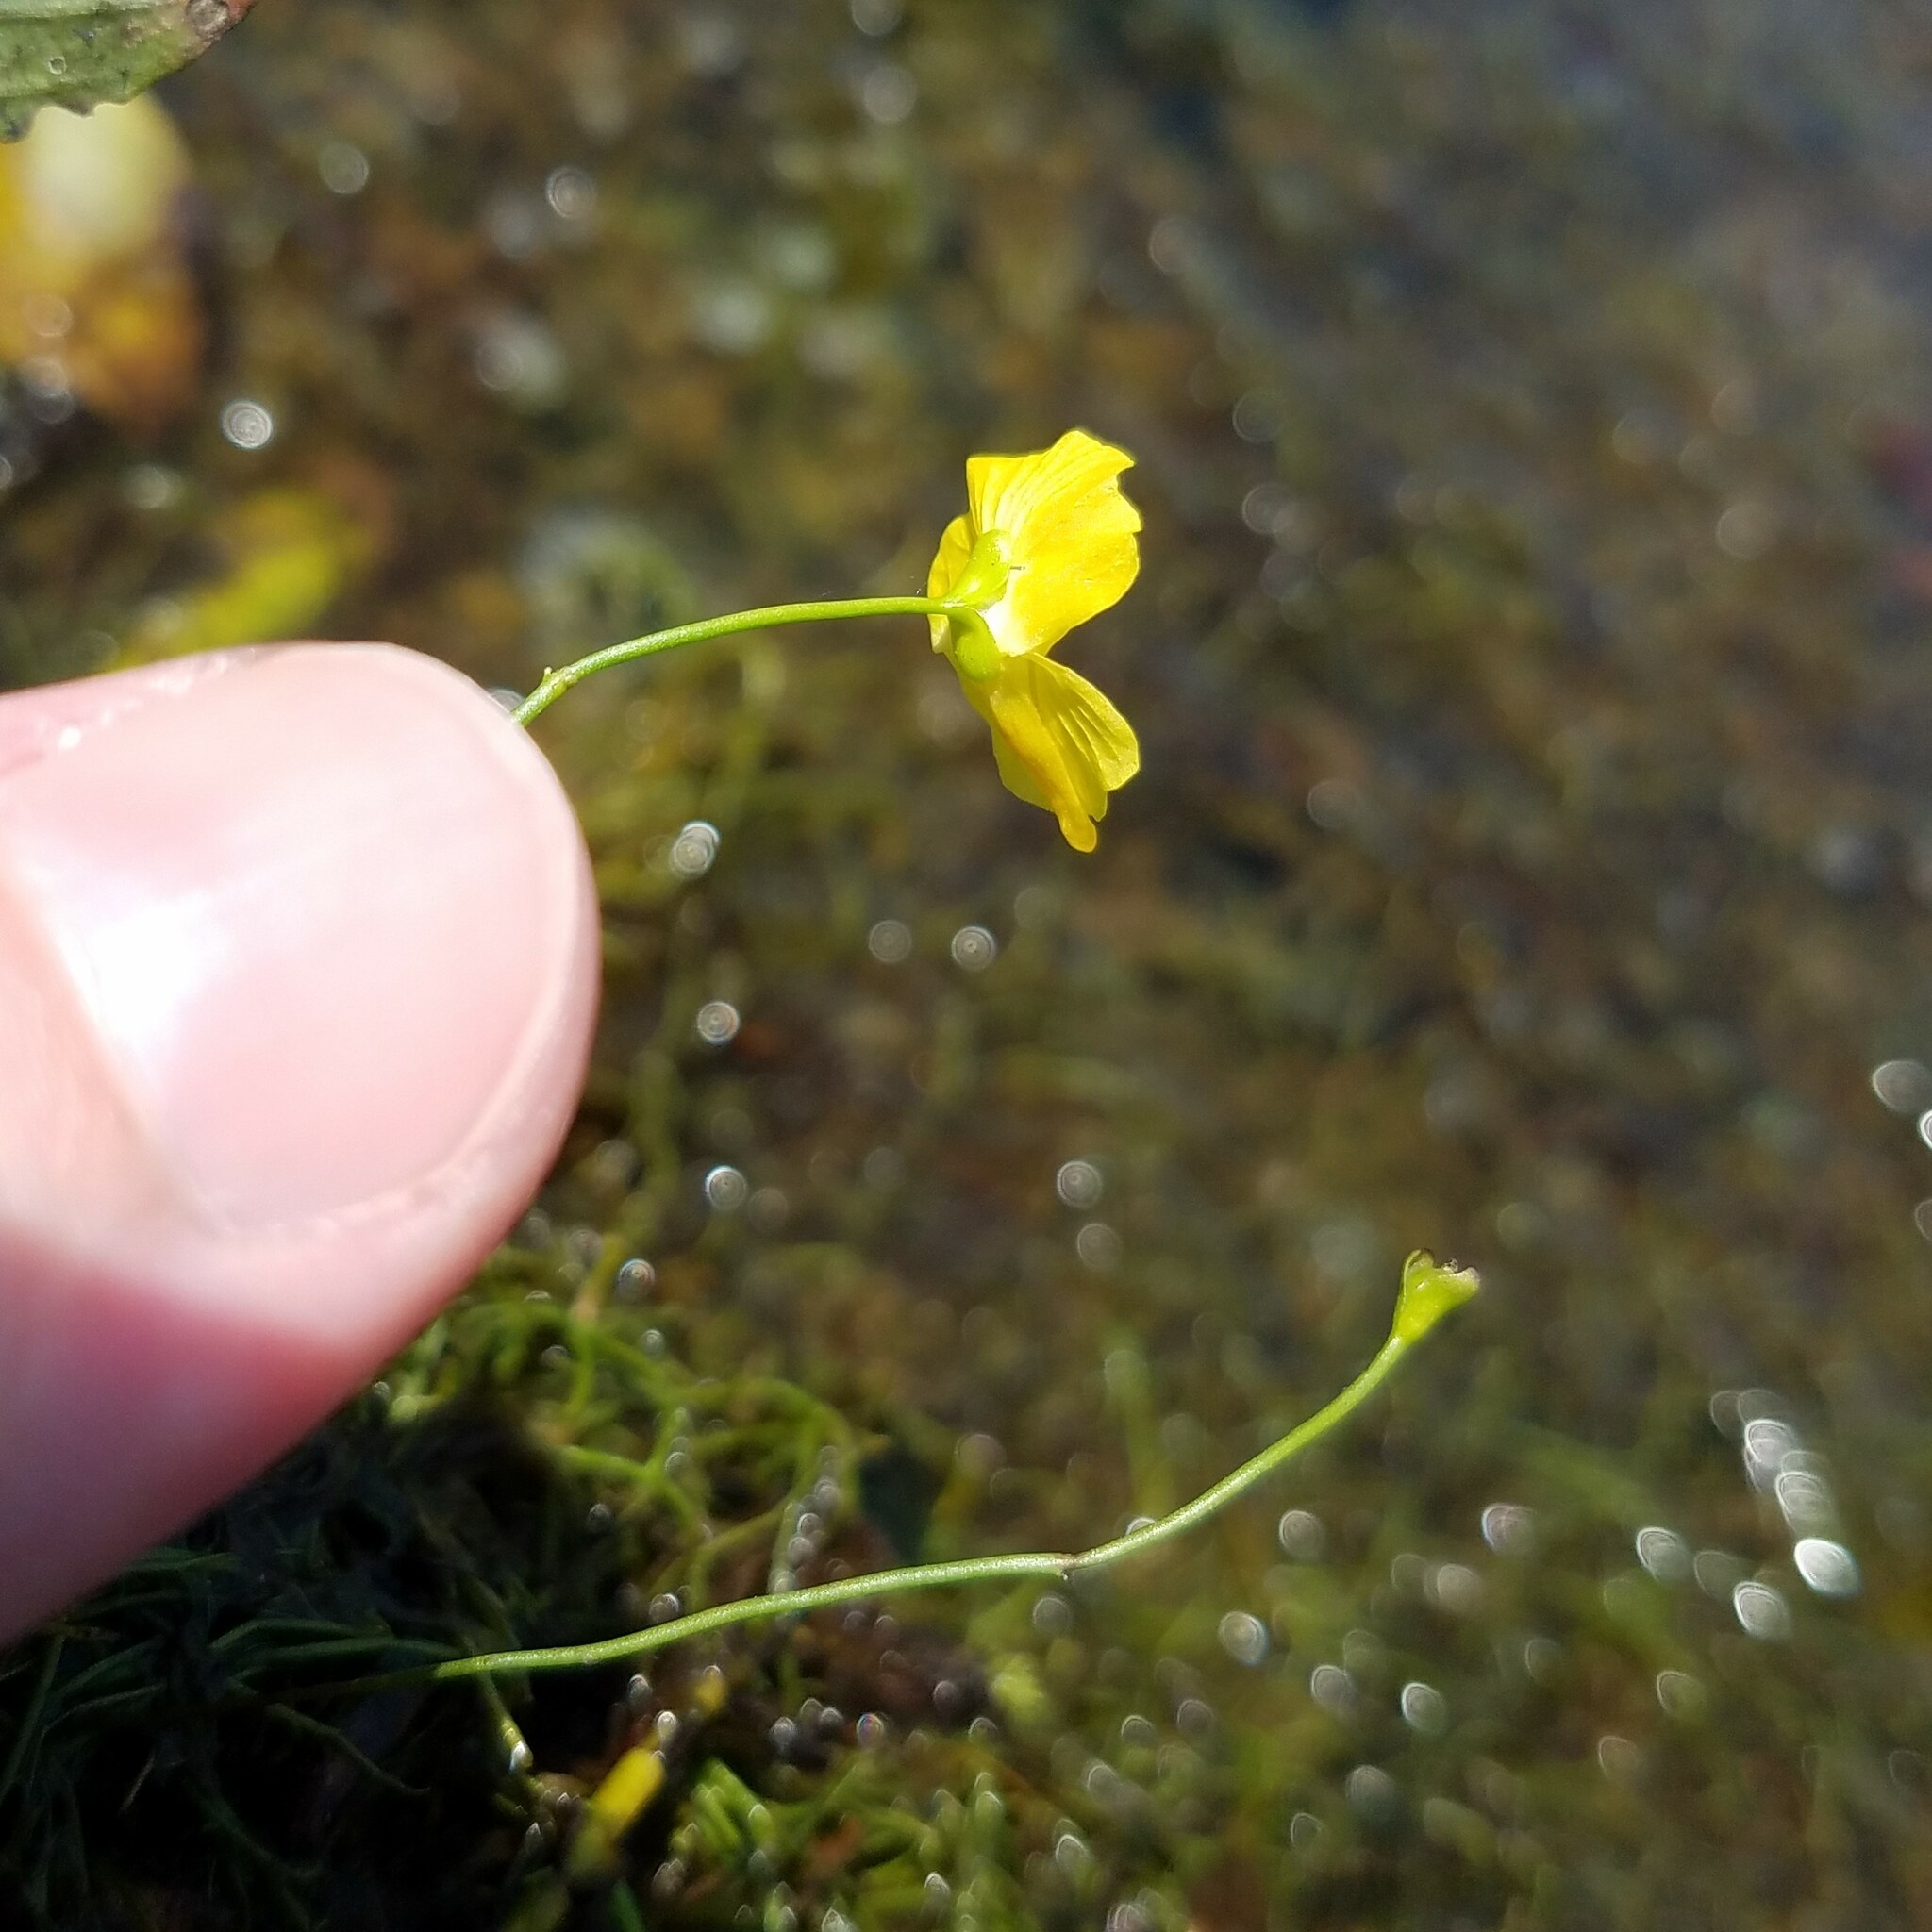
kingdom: Plantae
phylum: Tracheophyta
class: Magnoliopsida
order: Lamiales
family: Lentibulariaceae
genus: Utricularia
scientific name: Utricularia gibba
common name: Humped bladderwort
